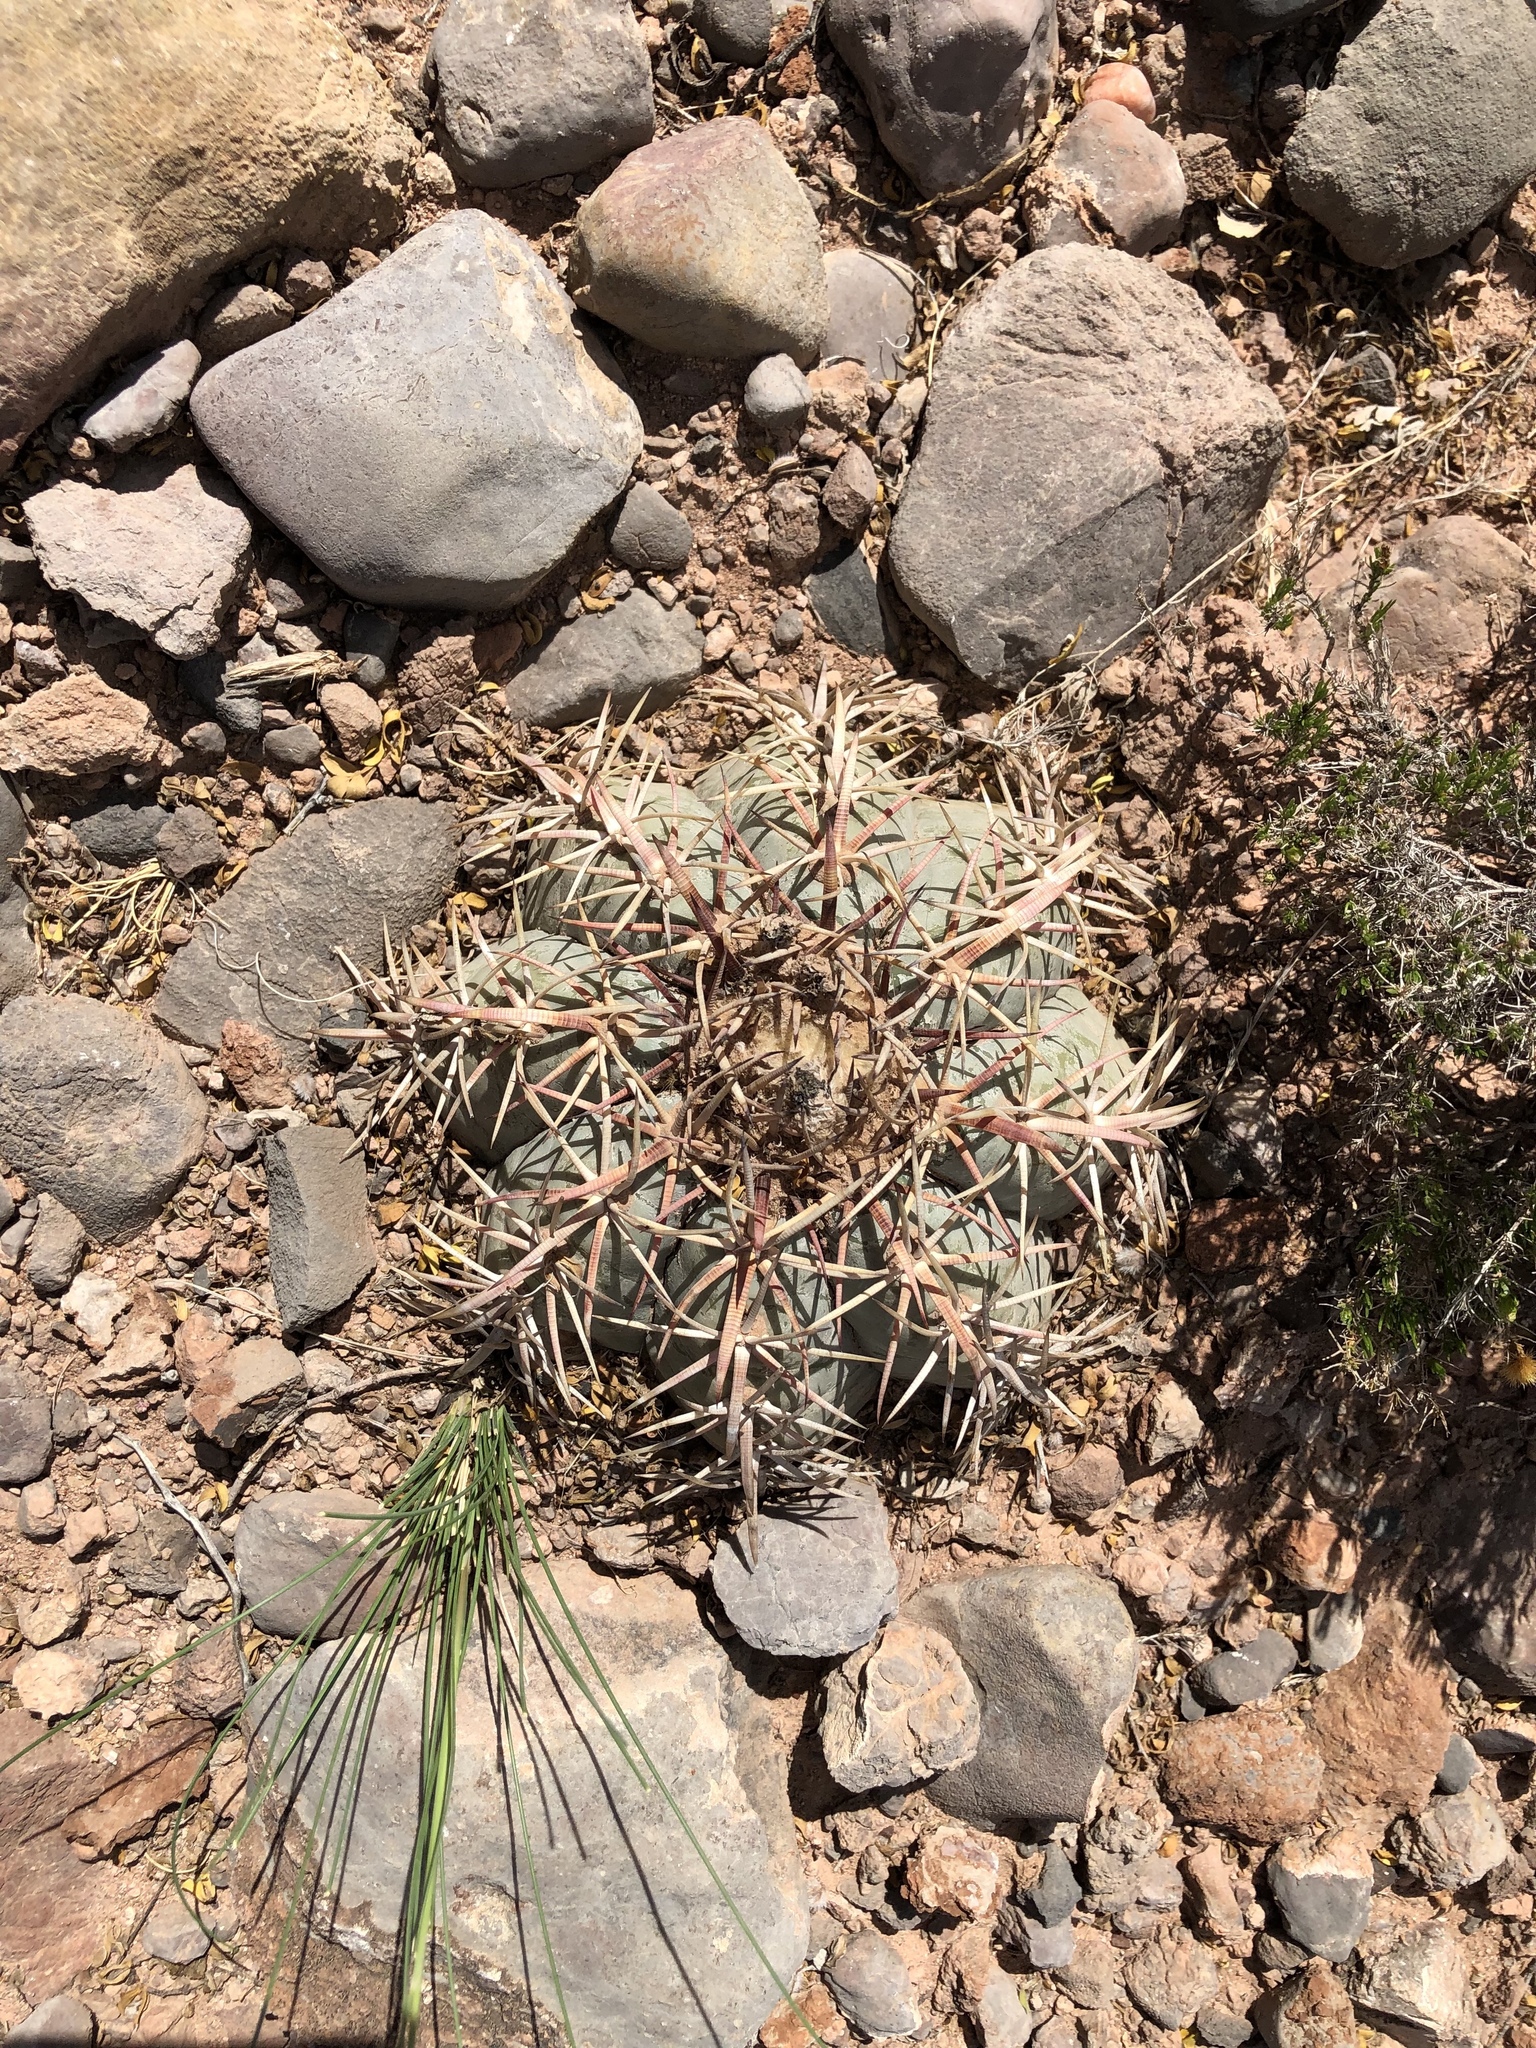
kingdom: Plantae
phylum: Tracheophyta
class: Magnoliopsida
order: Caryophyllales
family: Cactaceae
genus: Echinocactus
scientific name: Echinocactus horizonthalonius
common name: Devilshead
